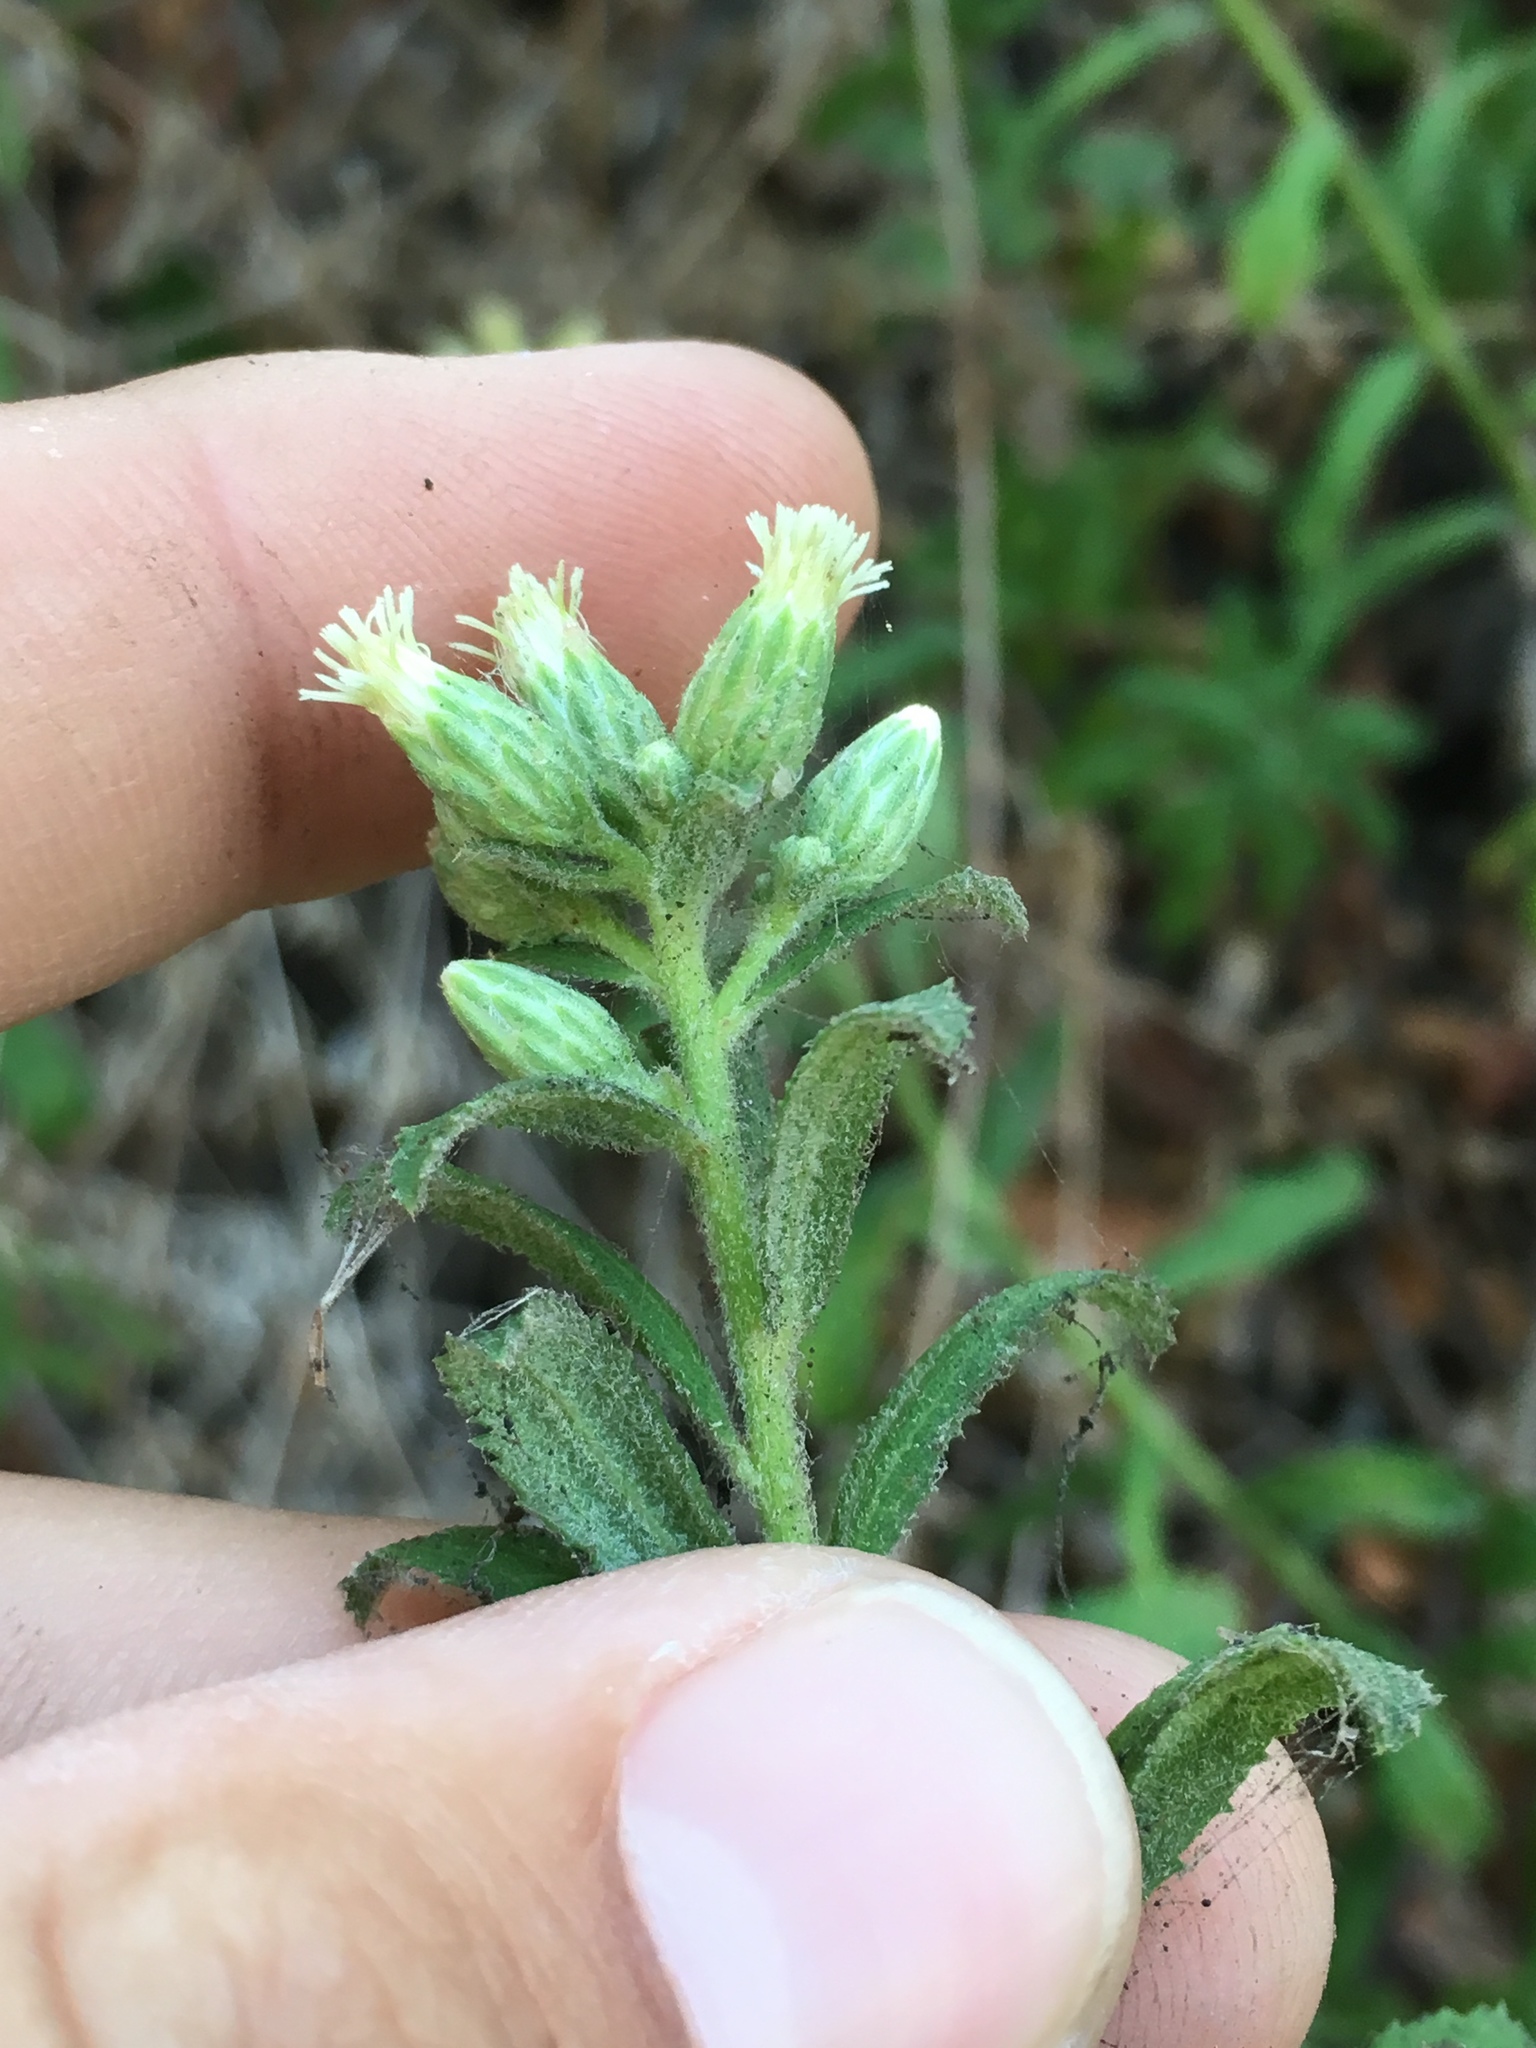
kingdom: Plantae
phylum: Tracheophyta
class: Magnoliopsida
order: Asterales
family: Asteraceae
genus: Baccharis
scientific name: Baccharis plummerae
